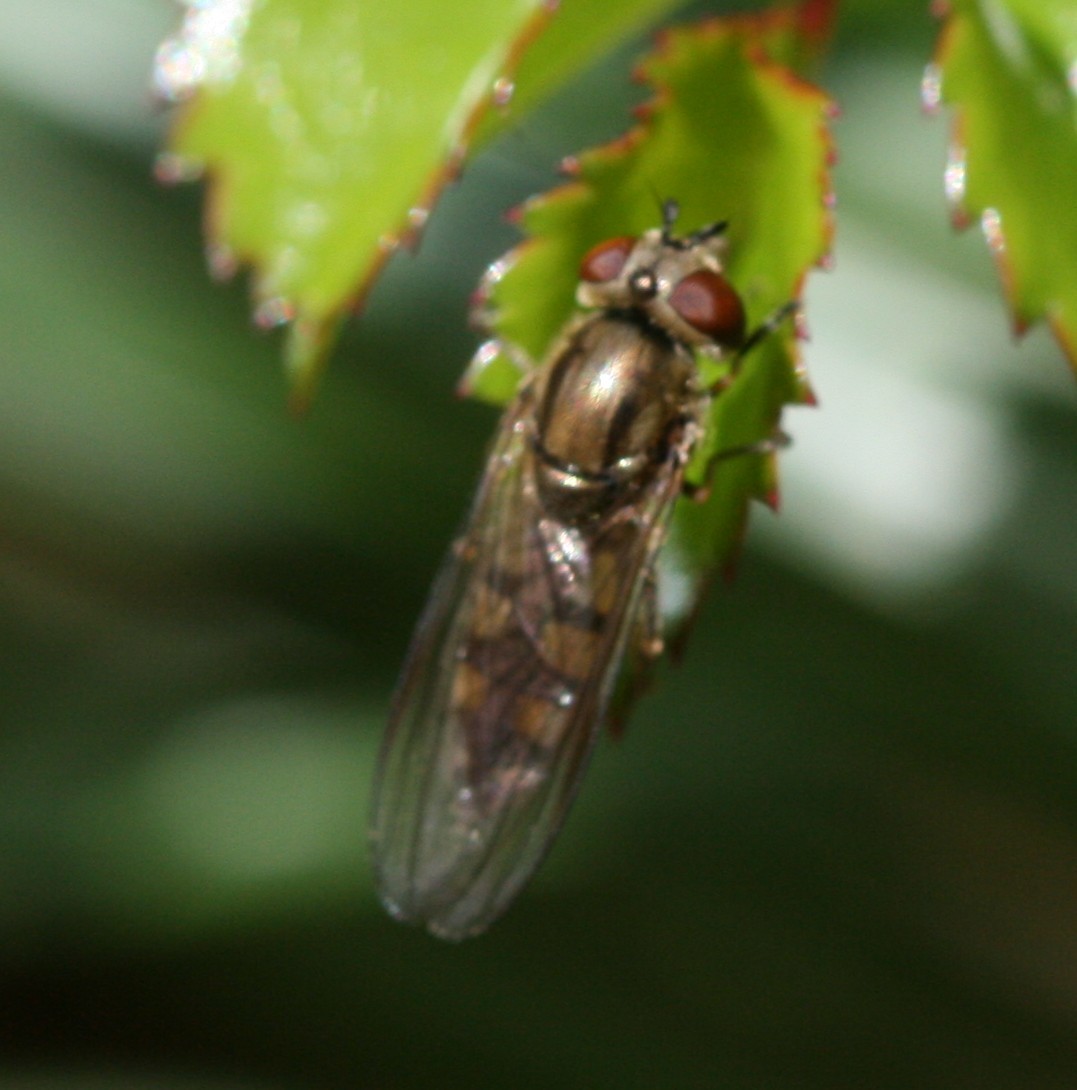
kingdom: Animalia
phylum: Arthropoda
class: Insecta
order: Diptera
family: Syrphidae
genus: Platycheirus
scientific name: Platycheirus manicatus
